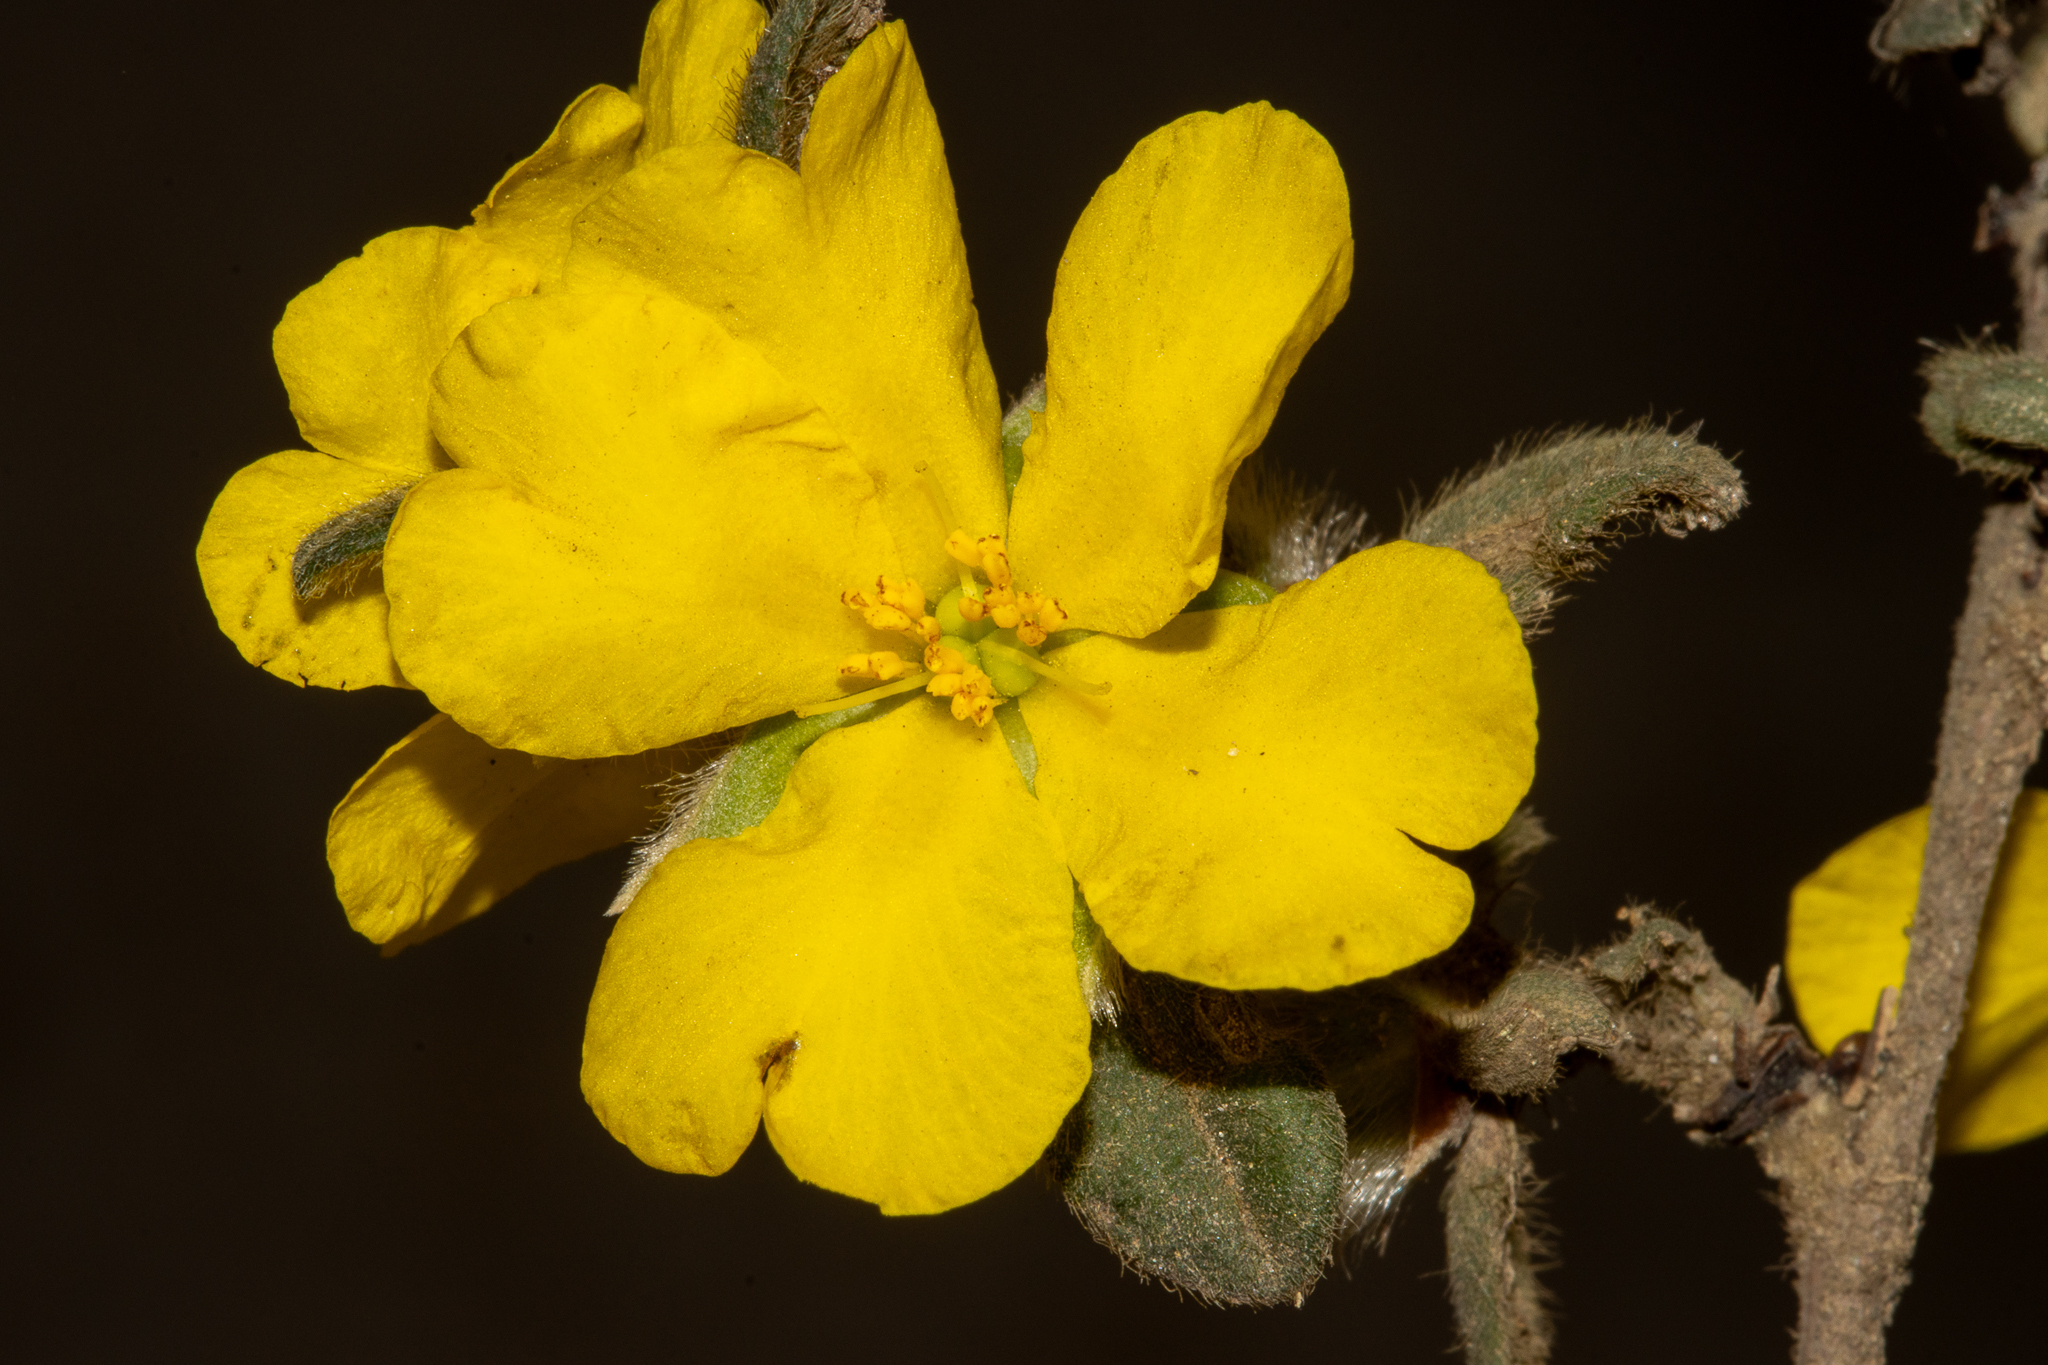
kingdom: Plantae
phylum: Tracheophyta
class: Magnoliopsida
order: Dilleniales
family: Dilleniaceae
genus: Hibbertia
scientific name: Hibbertia commutata
